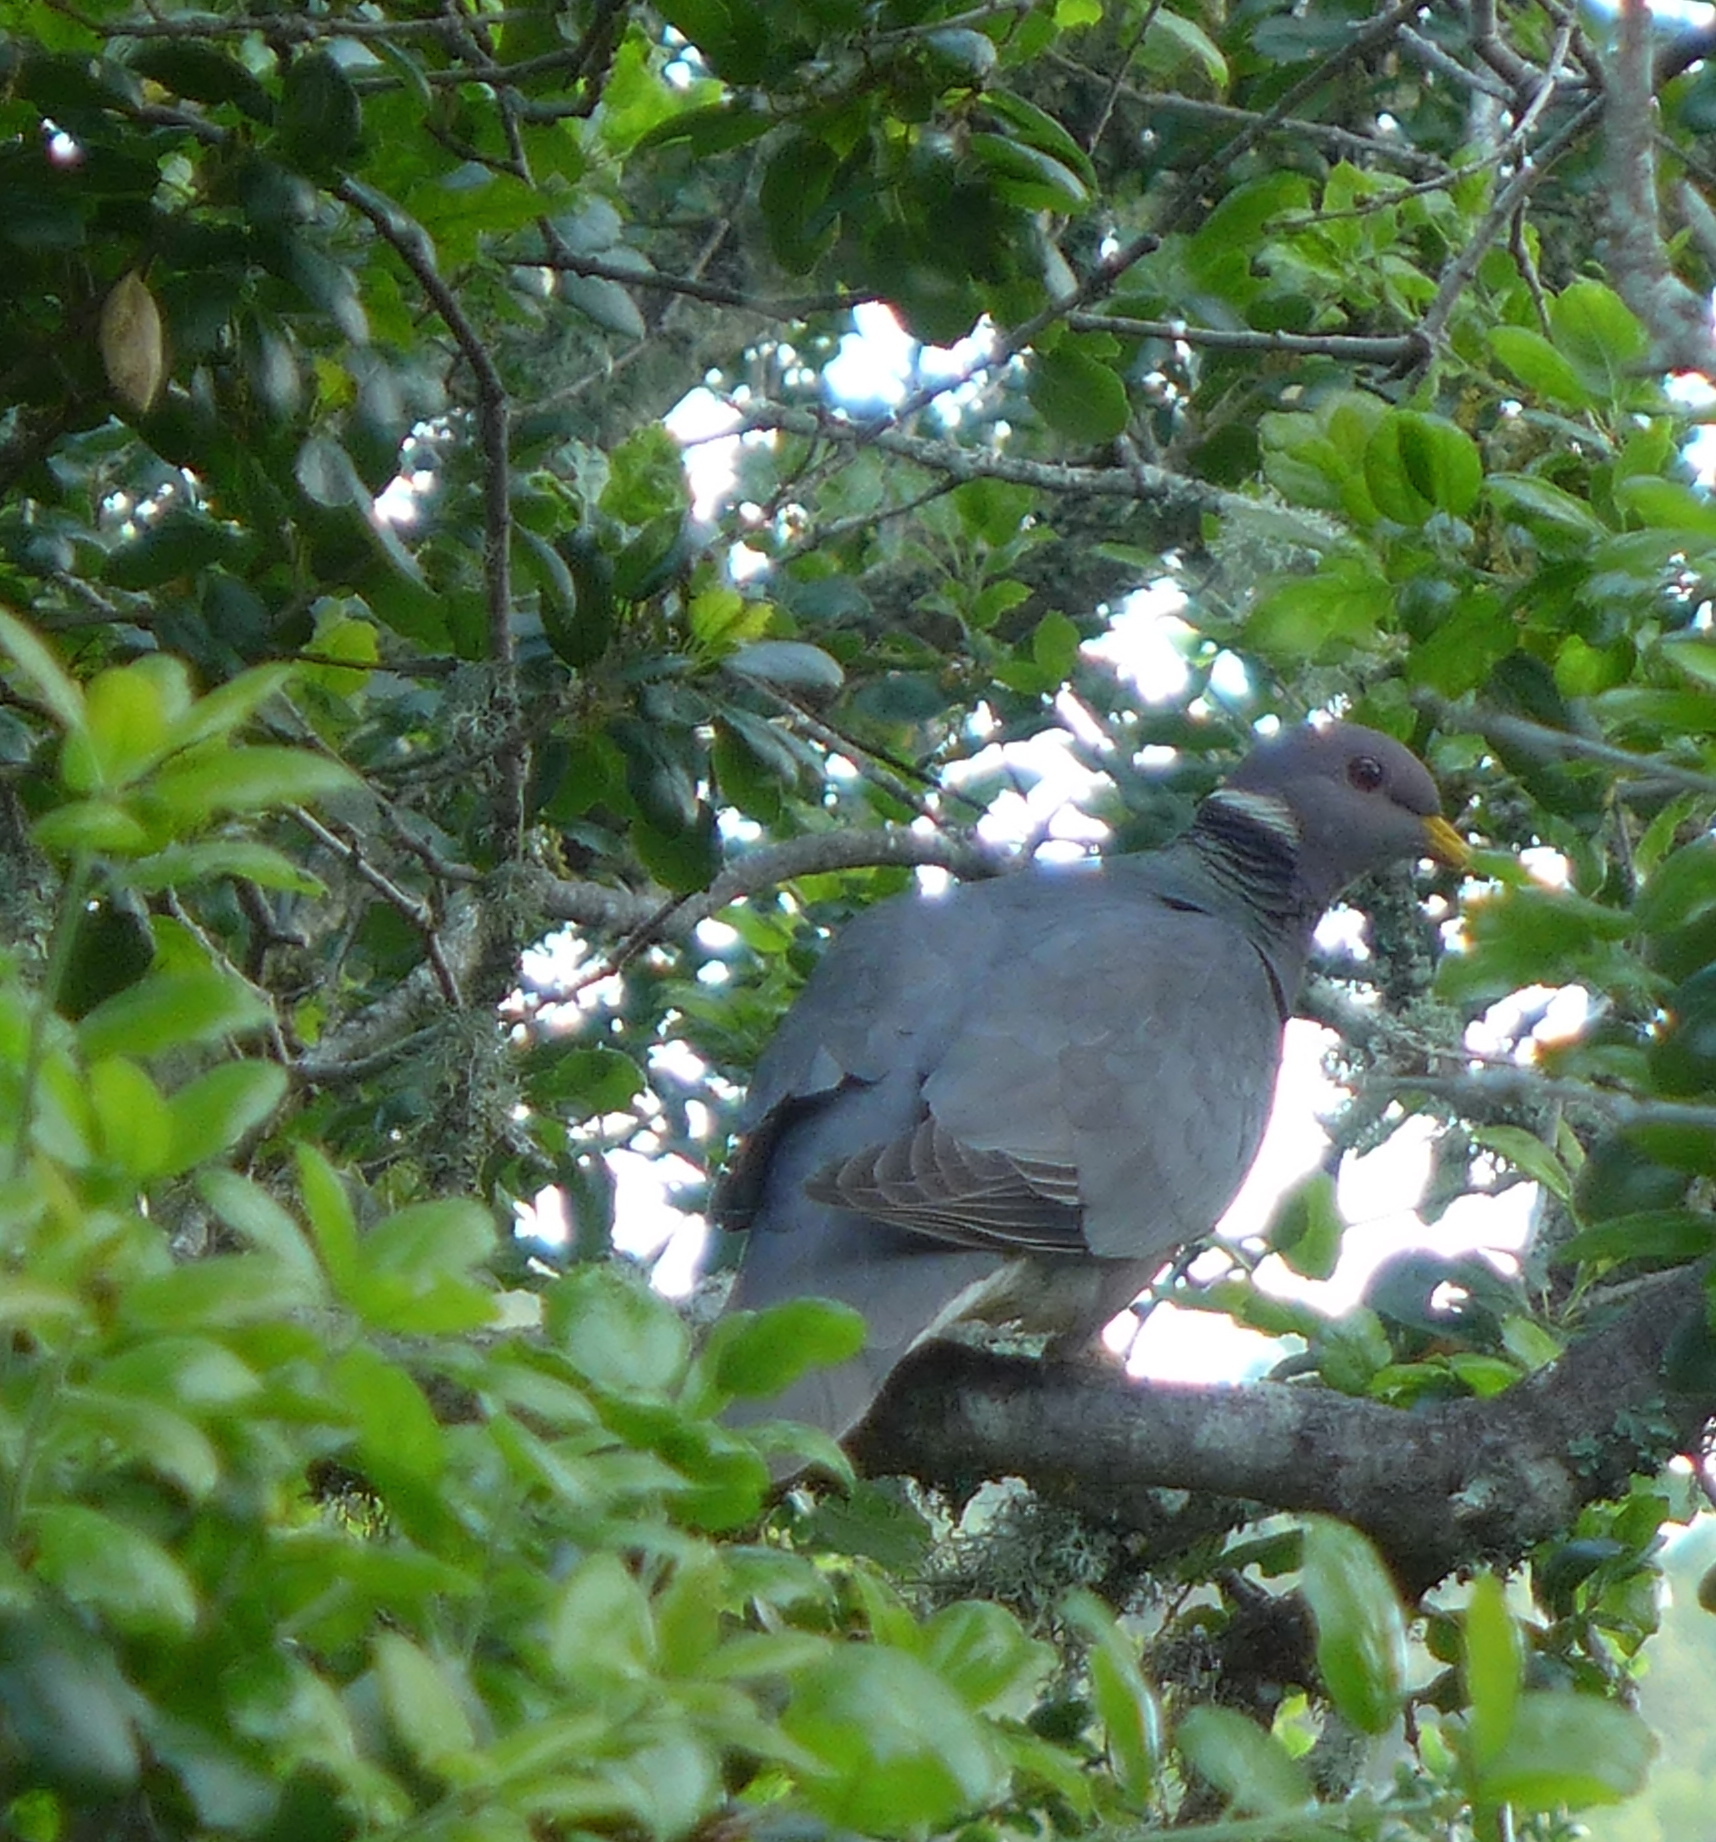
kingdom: Animalia
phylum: Chordata
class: Aves
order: Columbiformes
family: Columbidae
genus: Patagioenas
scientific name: Patagioenas fasciata
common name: Band-tailed pigeon
